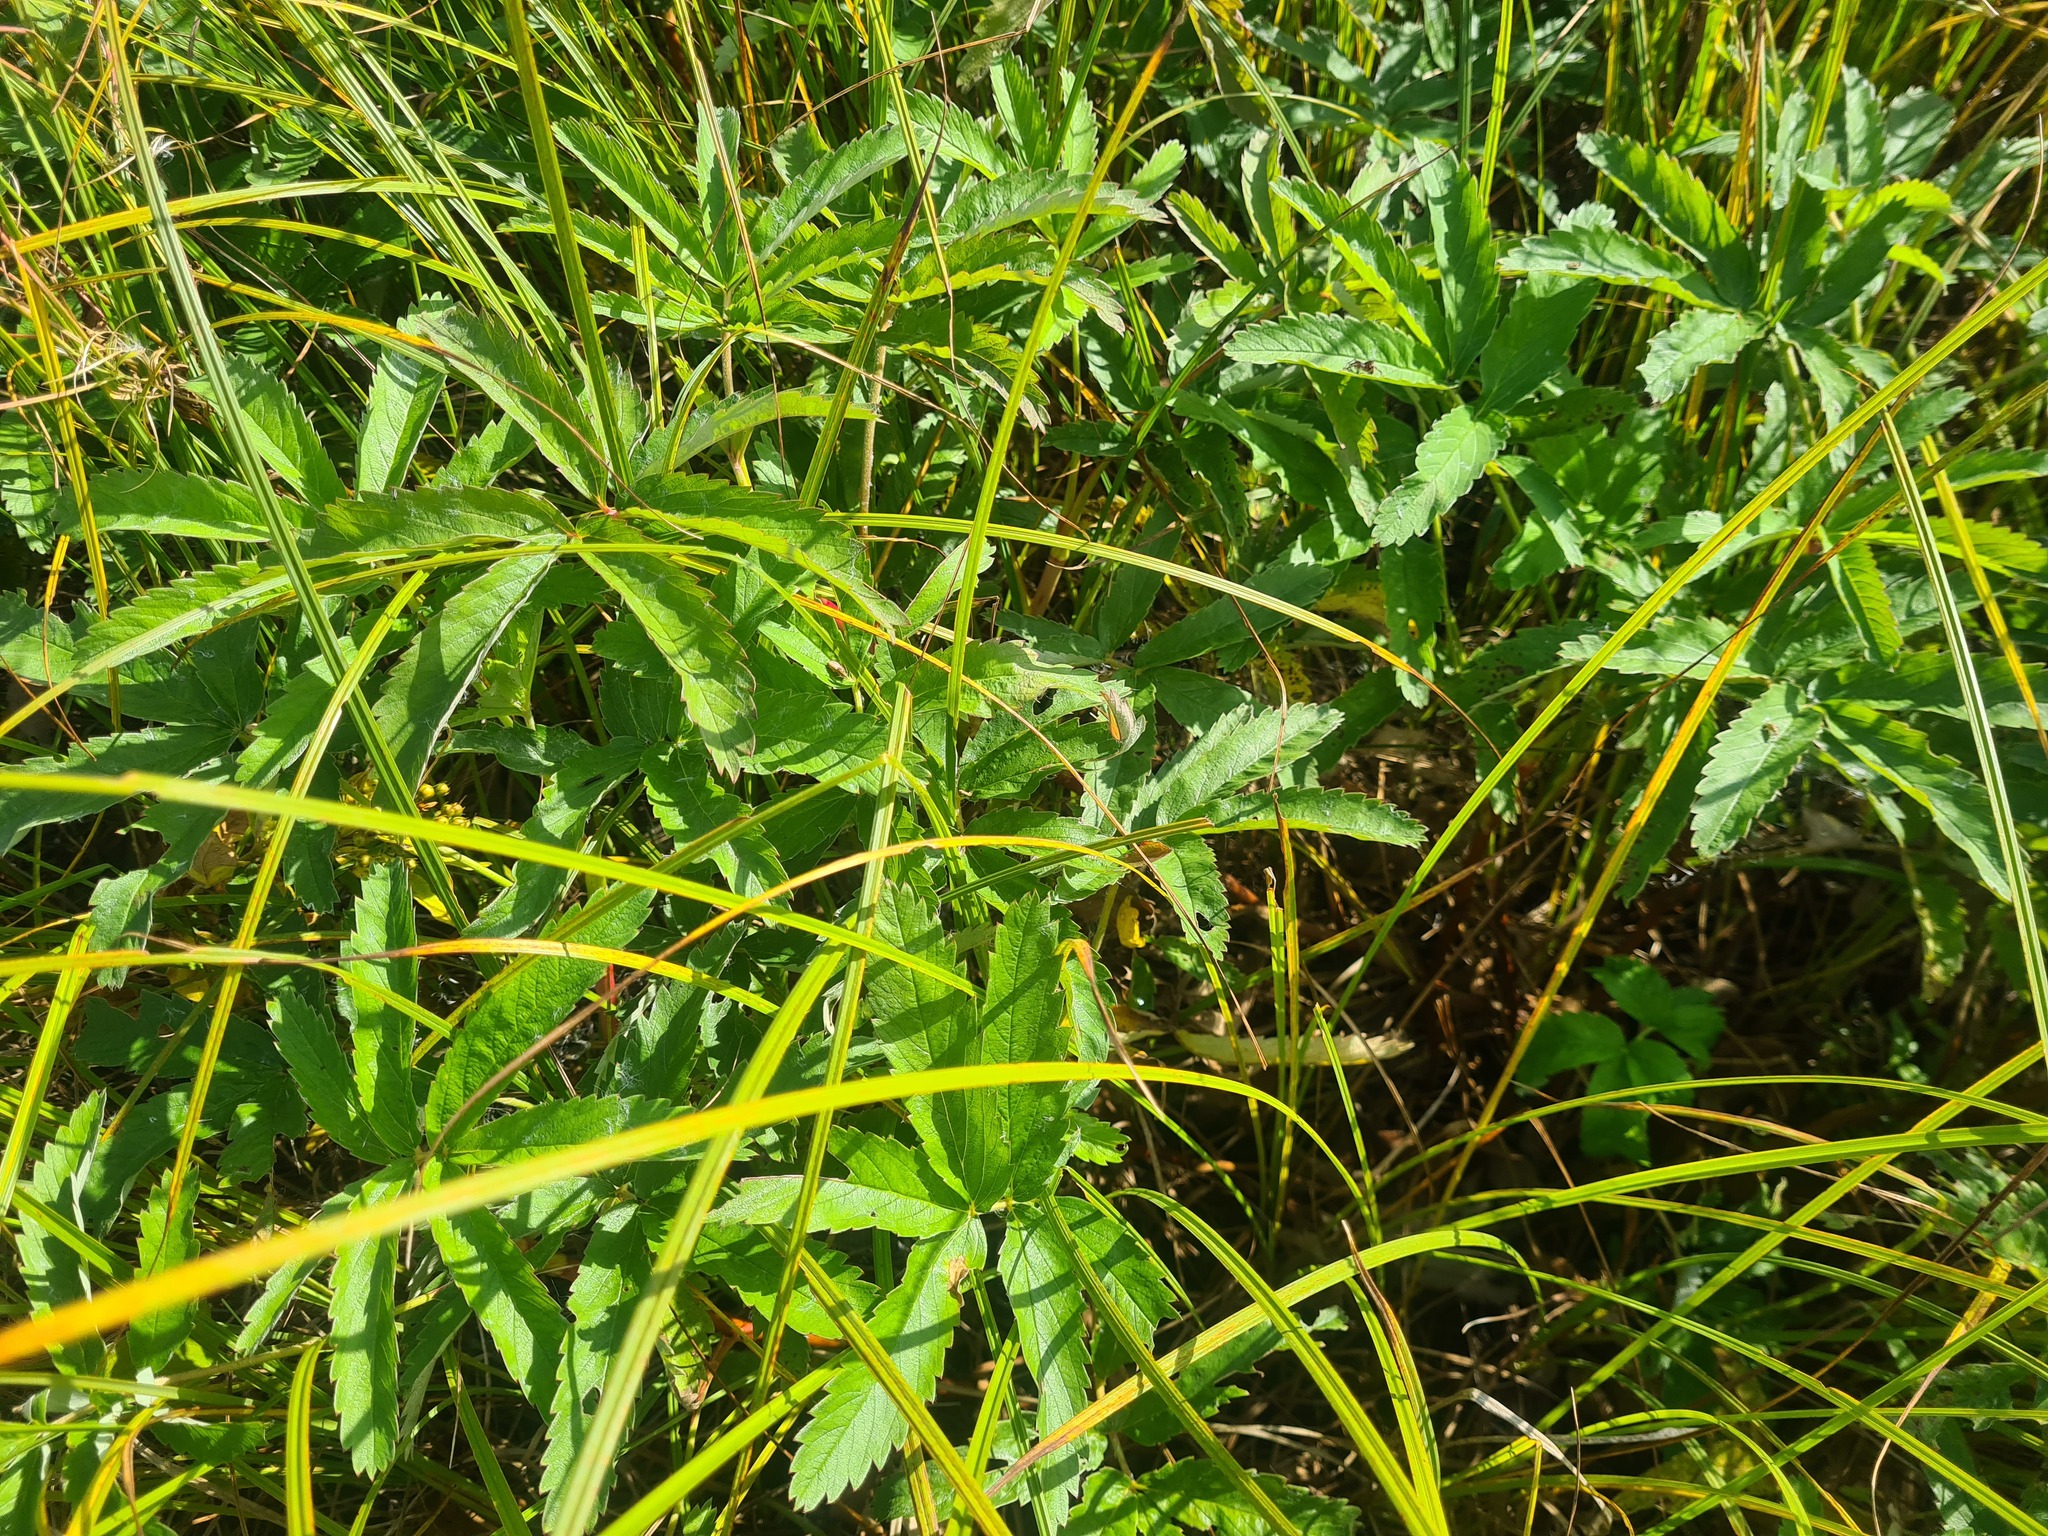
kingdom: Plantae
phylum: Tracheophyta
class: Magnoliopsida
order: Rosales
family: Rosaceae
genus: Comarum
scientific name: Comarum palustre
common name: Marsh cinquefoil
